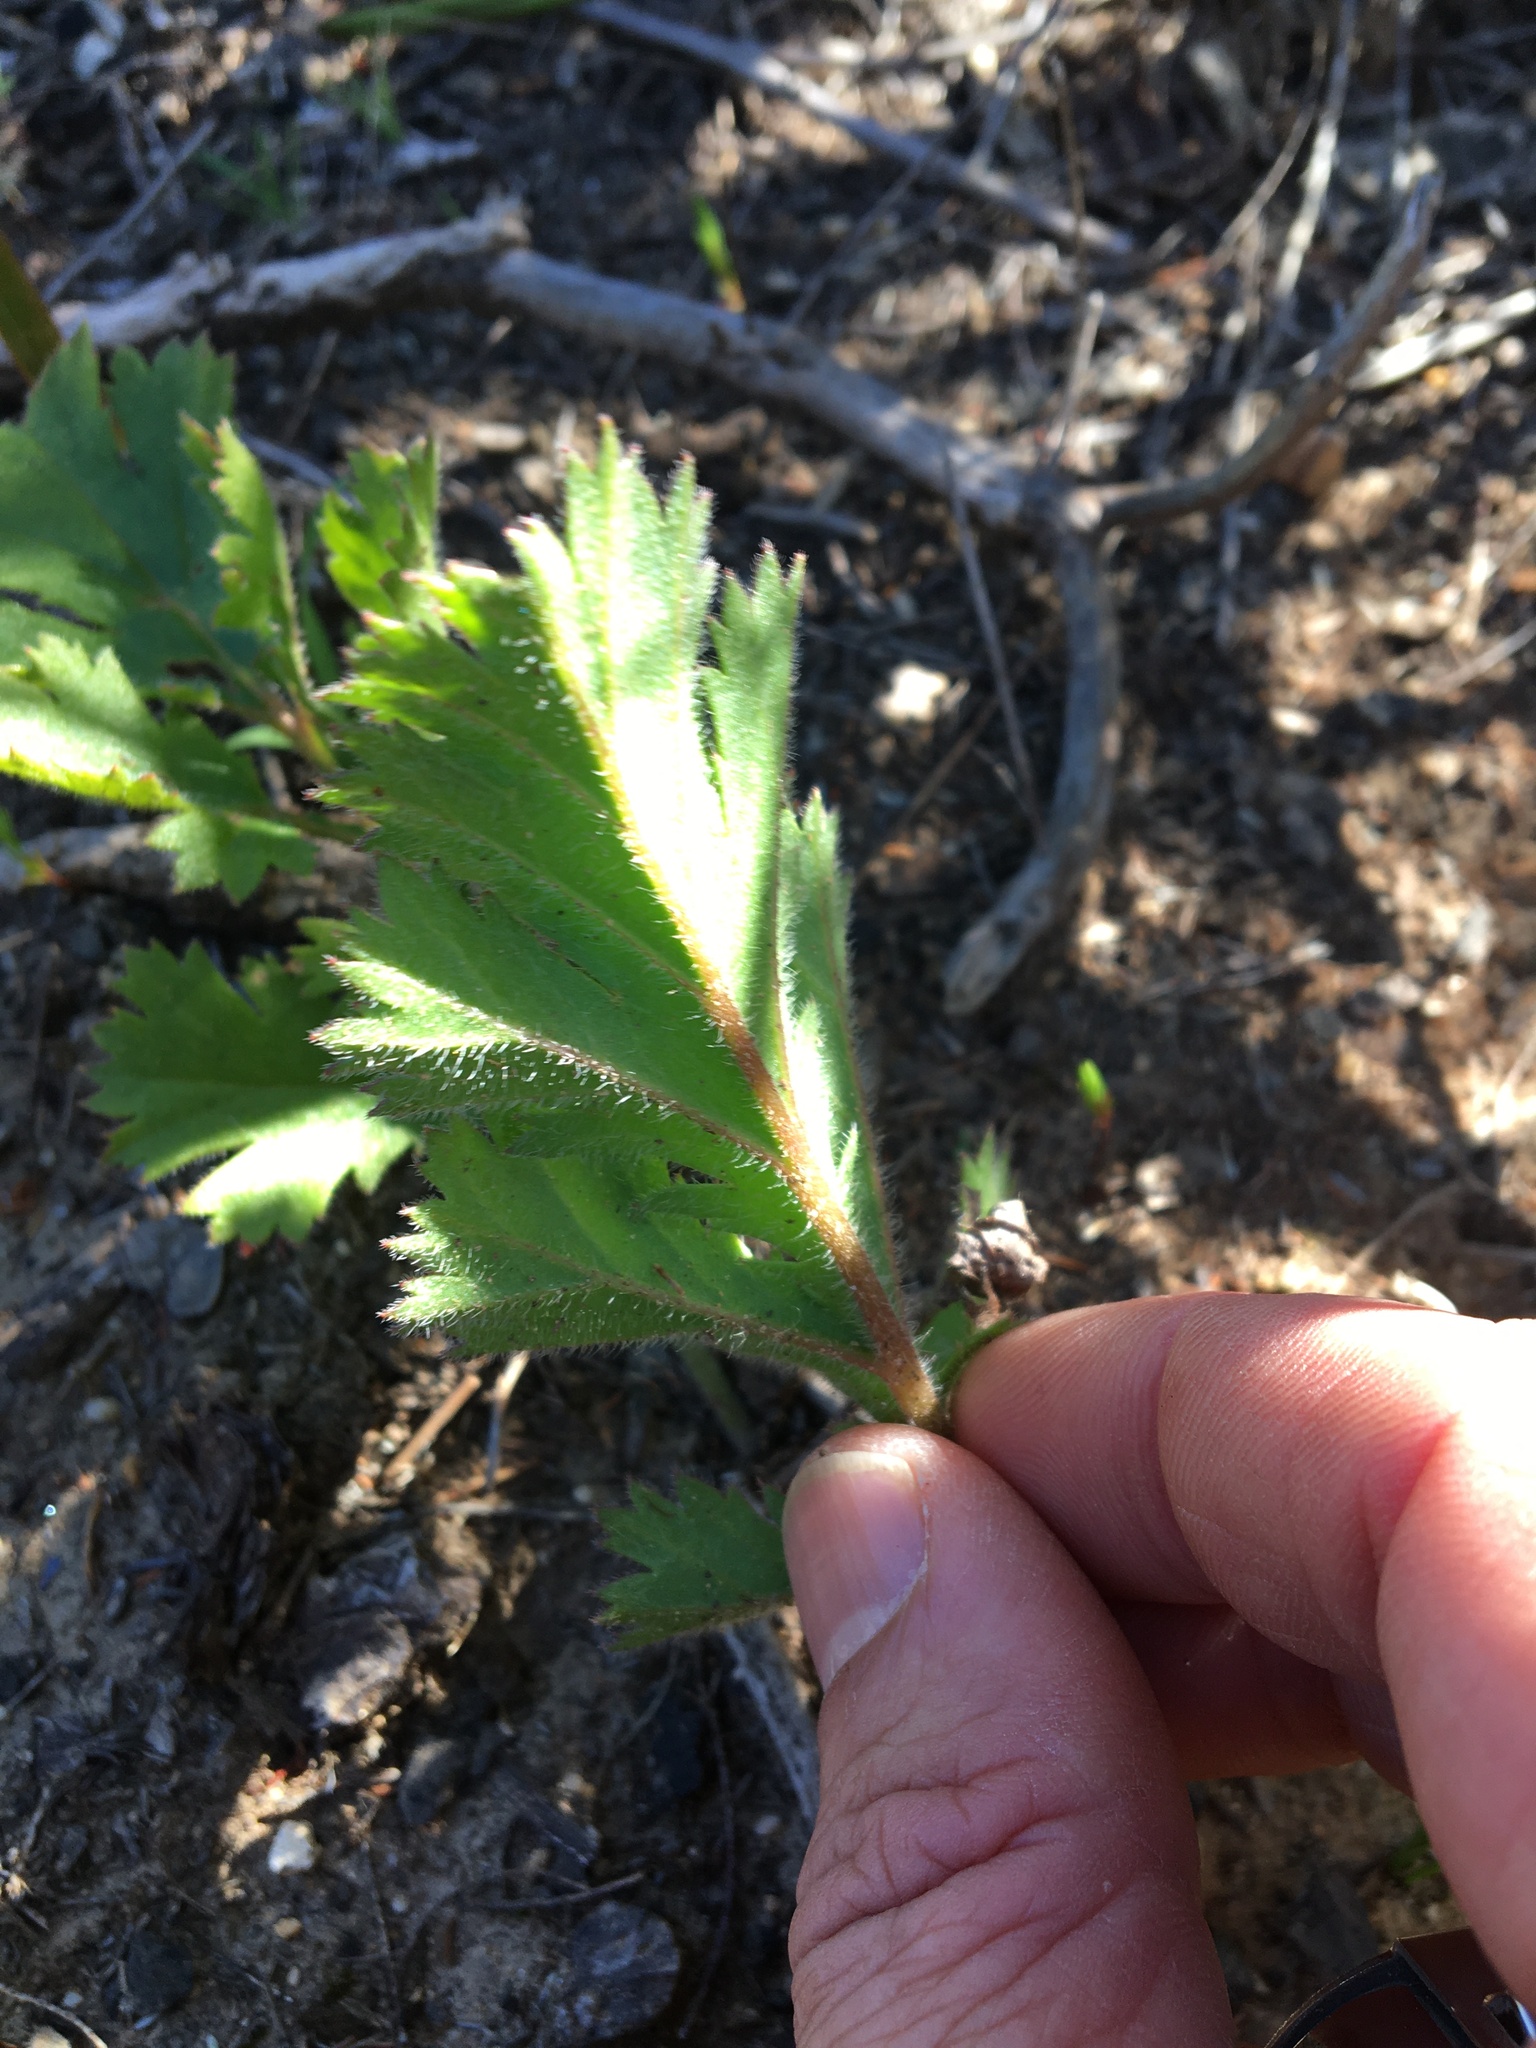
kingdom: Plantae
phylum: Tracheophyta
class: Magnoliopsida
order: Geraniales
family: Geraniaceae
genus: Pelargonium
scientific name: Pelargonium radulifolium
